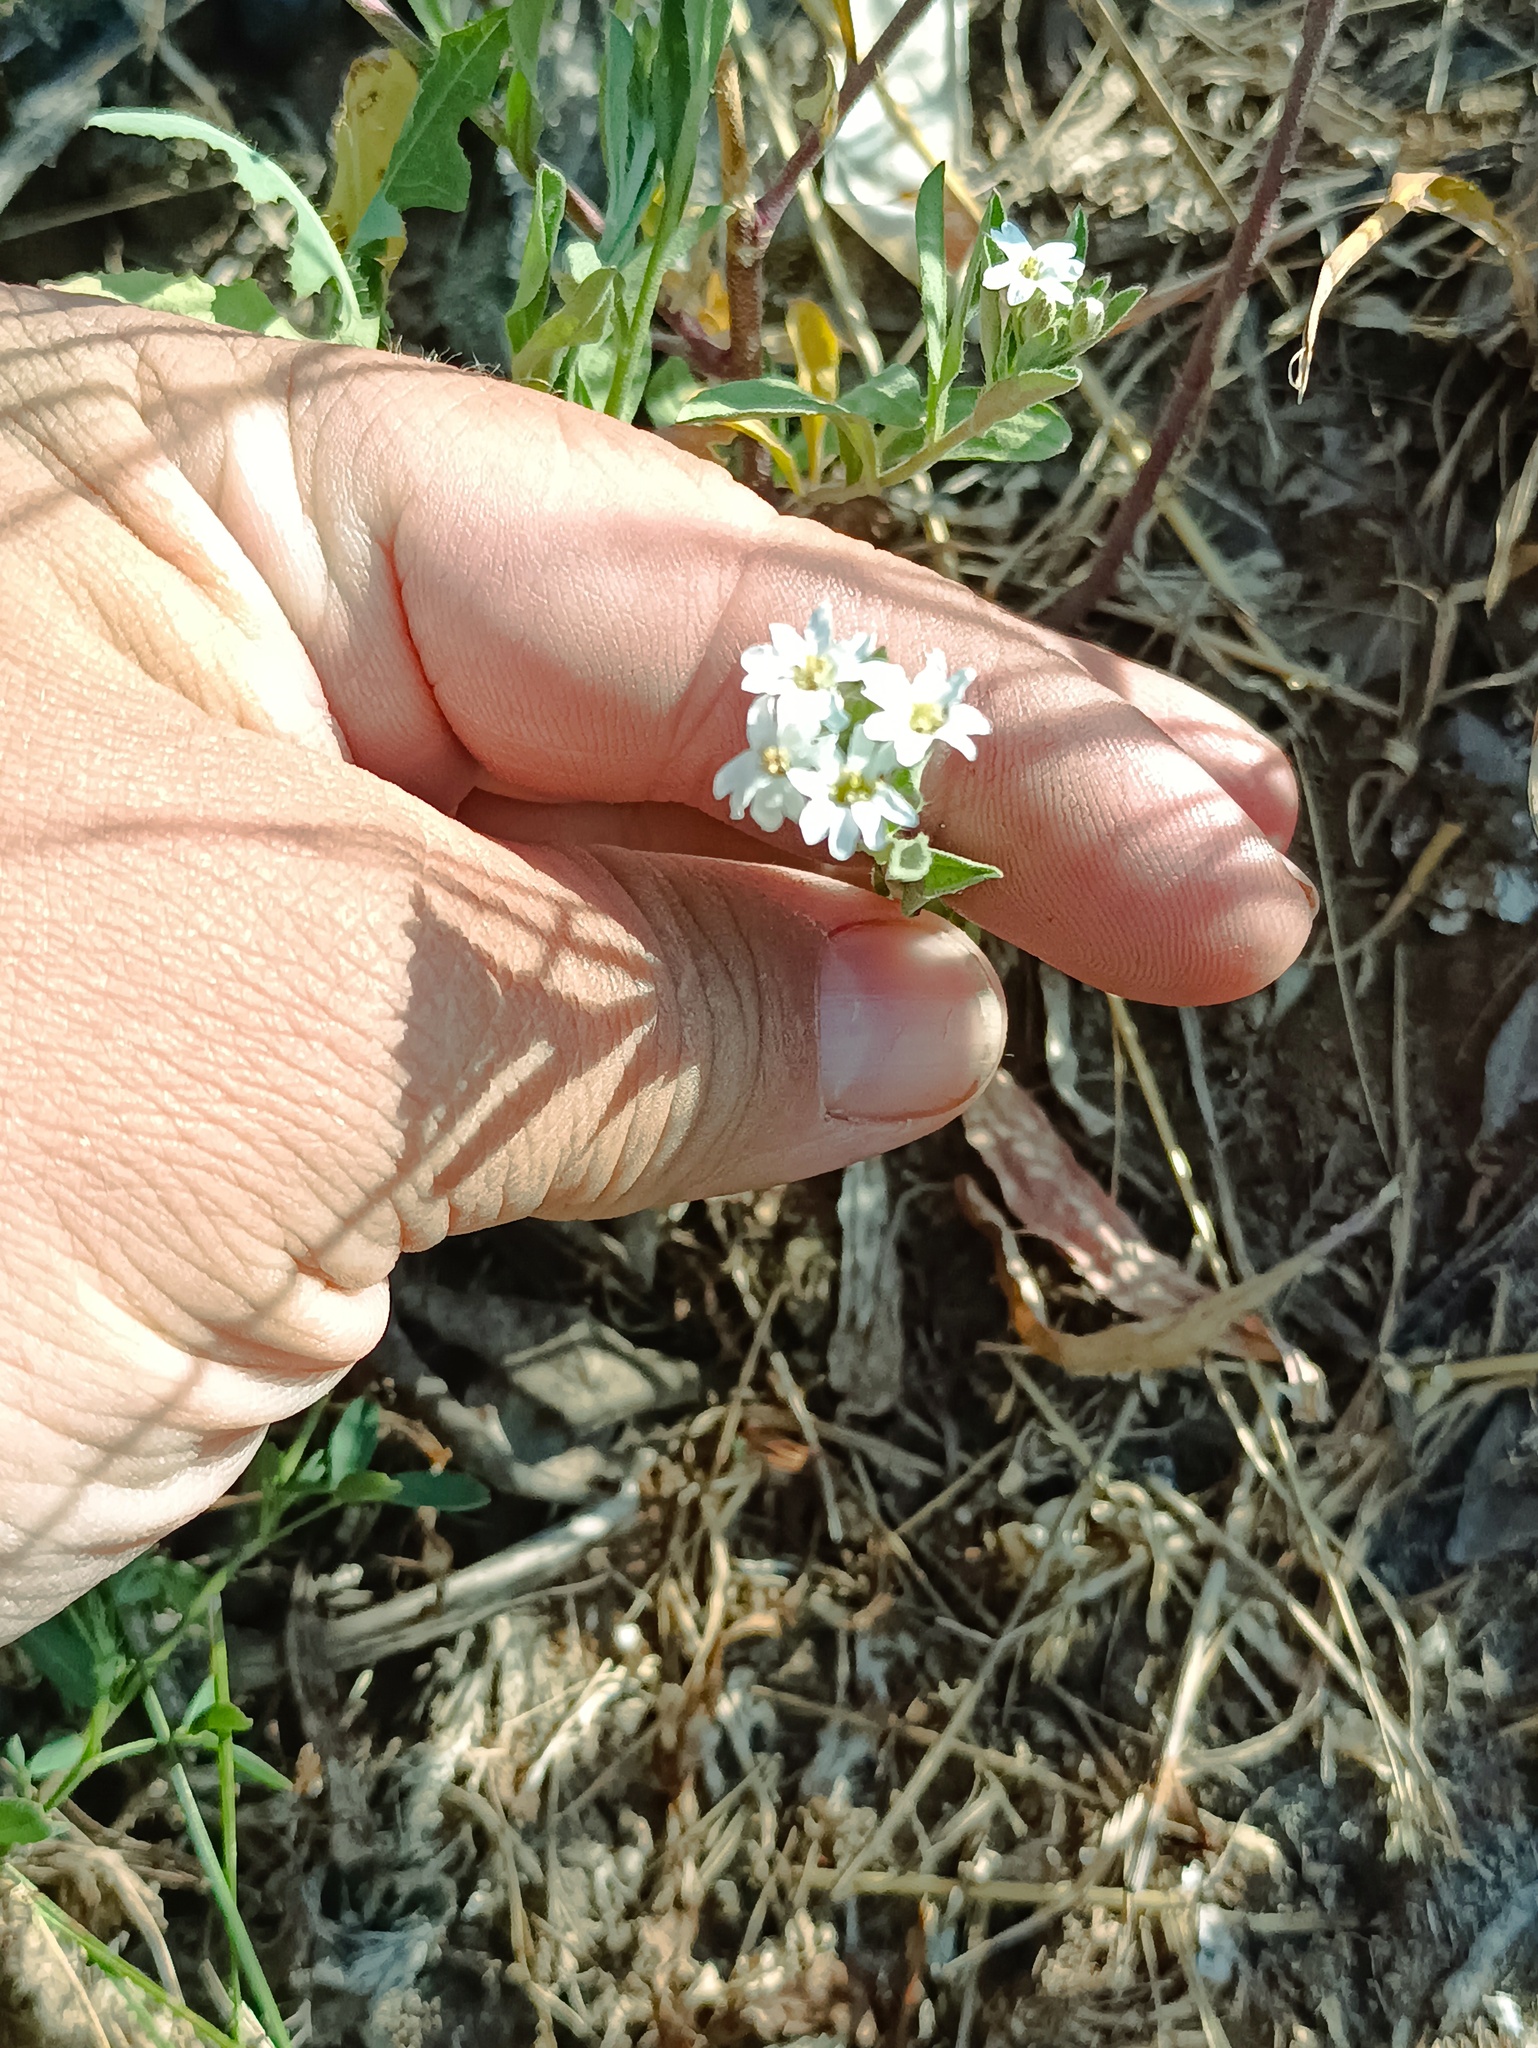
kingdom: Plantae
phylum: Tracheophyta
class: Magnoliopsida
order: Brassicales
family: Brassicaceae
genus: Berteroa
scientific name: Berteroa incana
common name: Hoary alison
